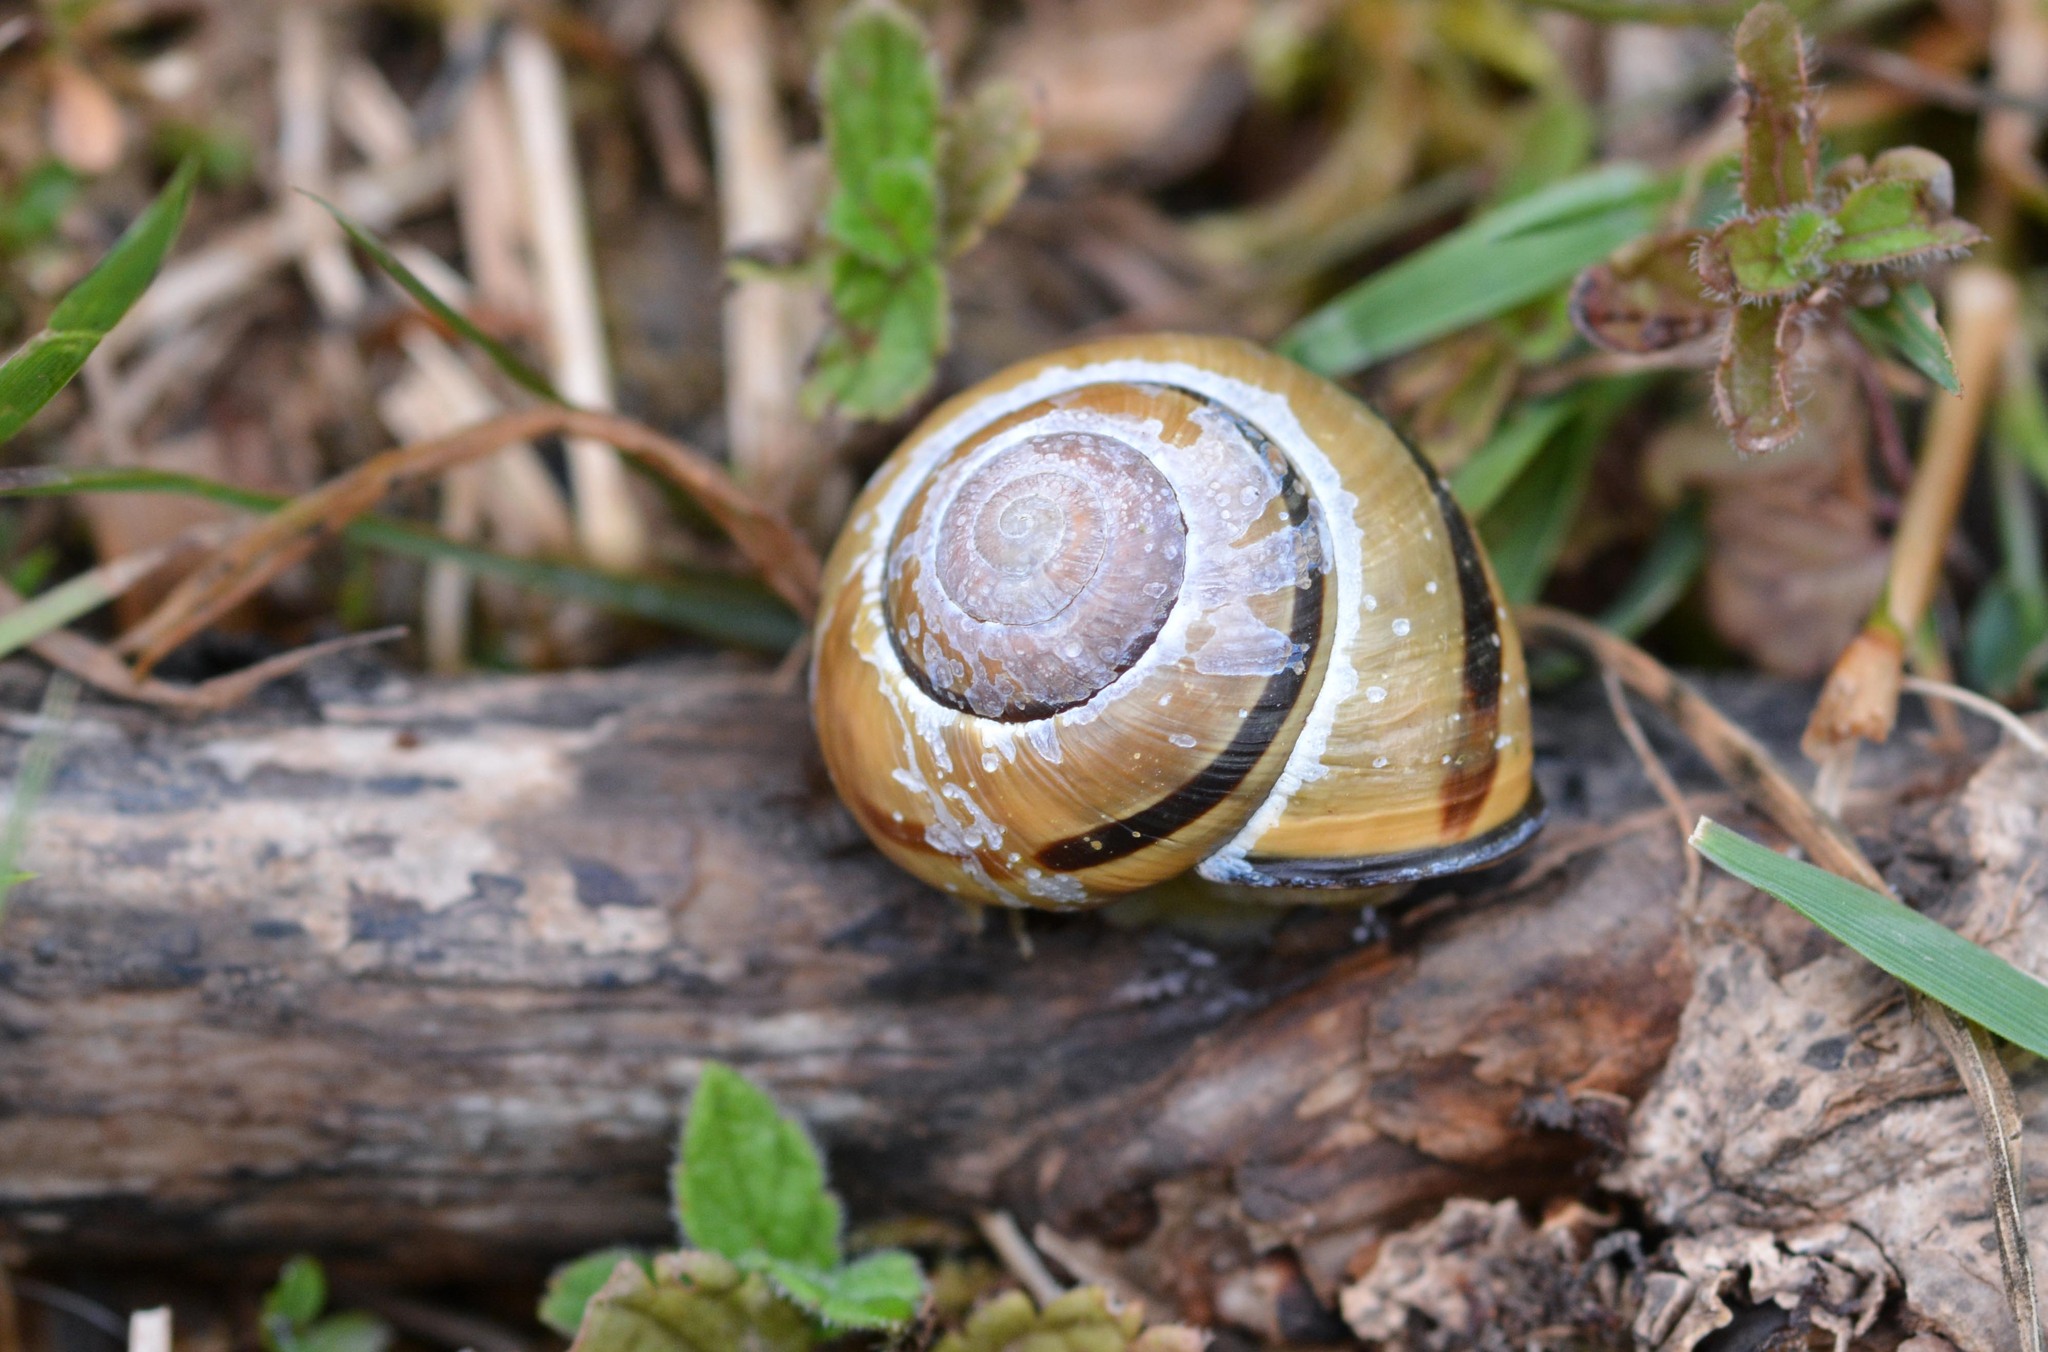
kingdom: Animalia
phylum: Mollusca
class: Gastropoda
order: Stylommatophora
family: Helicidae
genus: Cepaea
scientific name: Cepaea nemoralis
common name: Grovesnail
